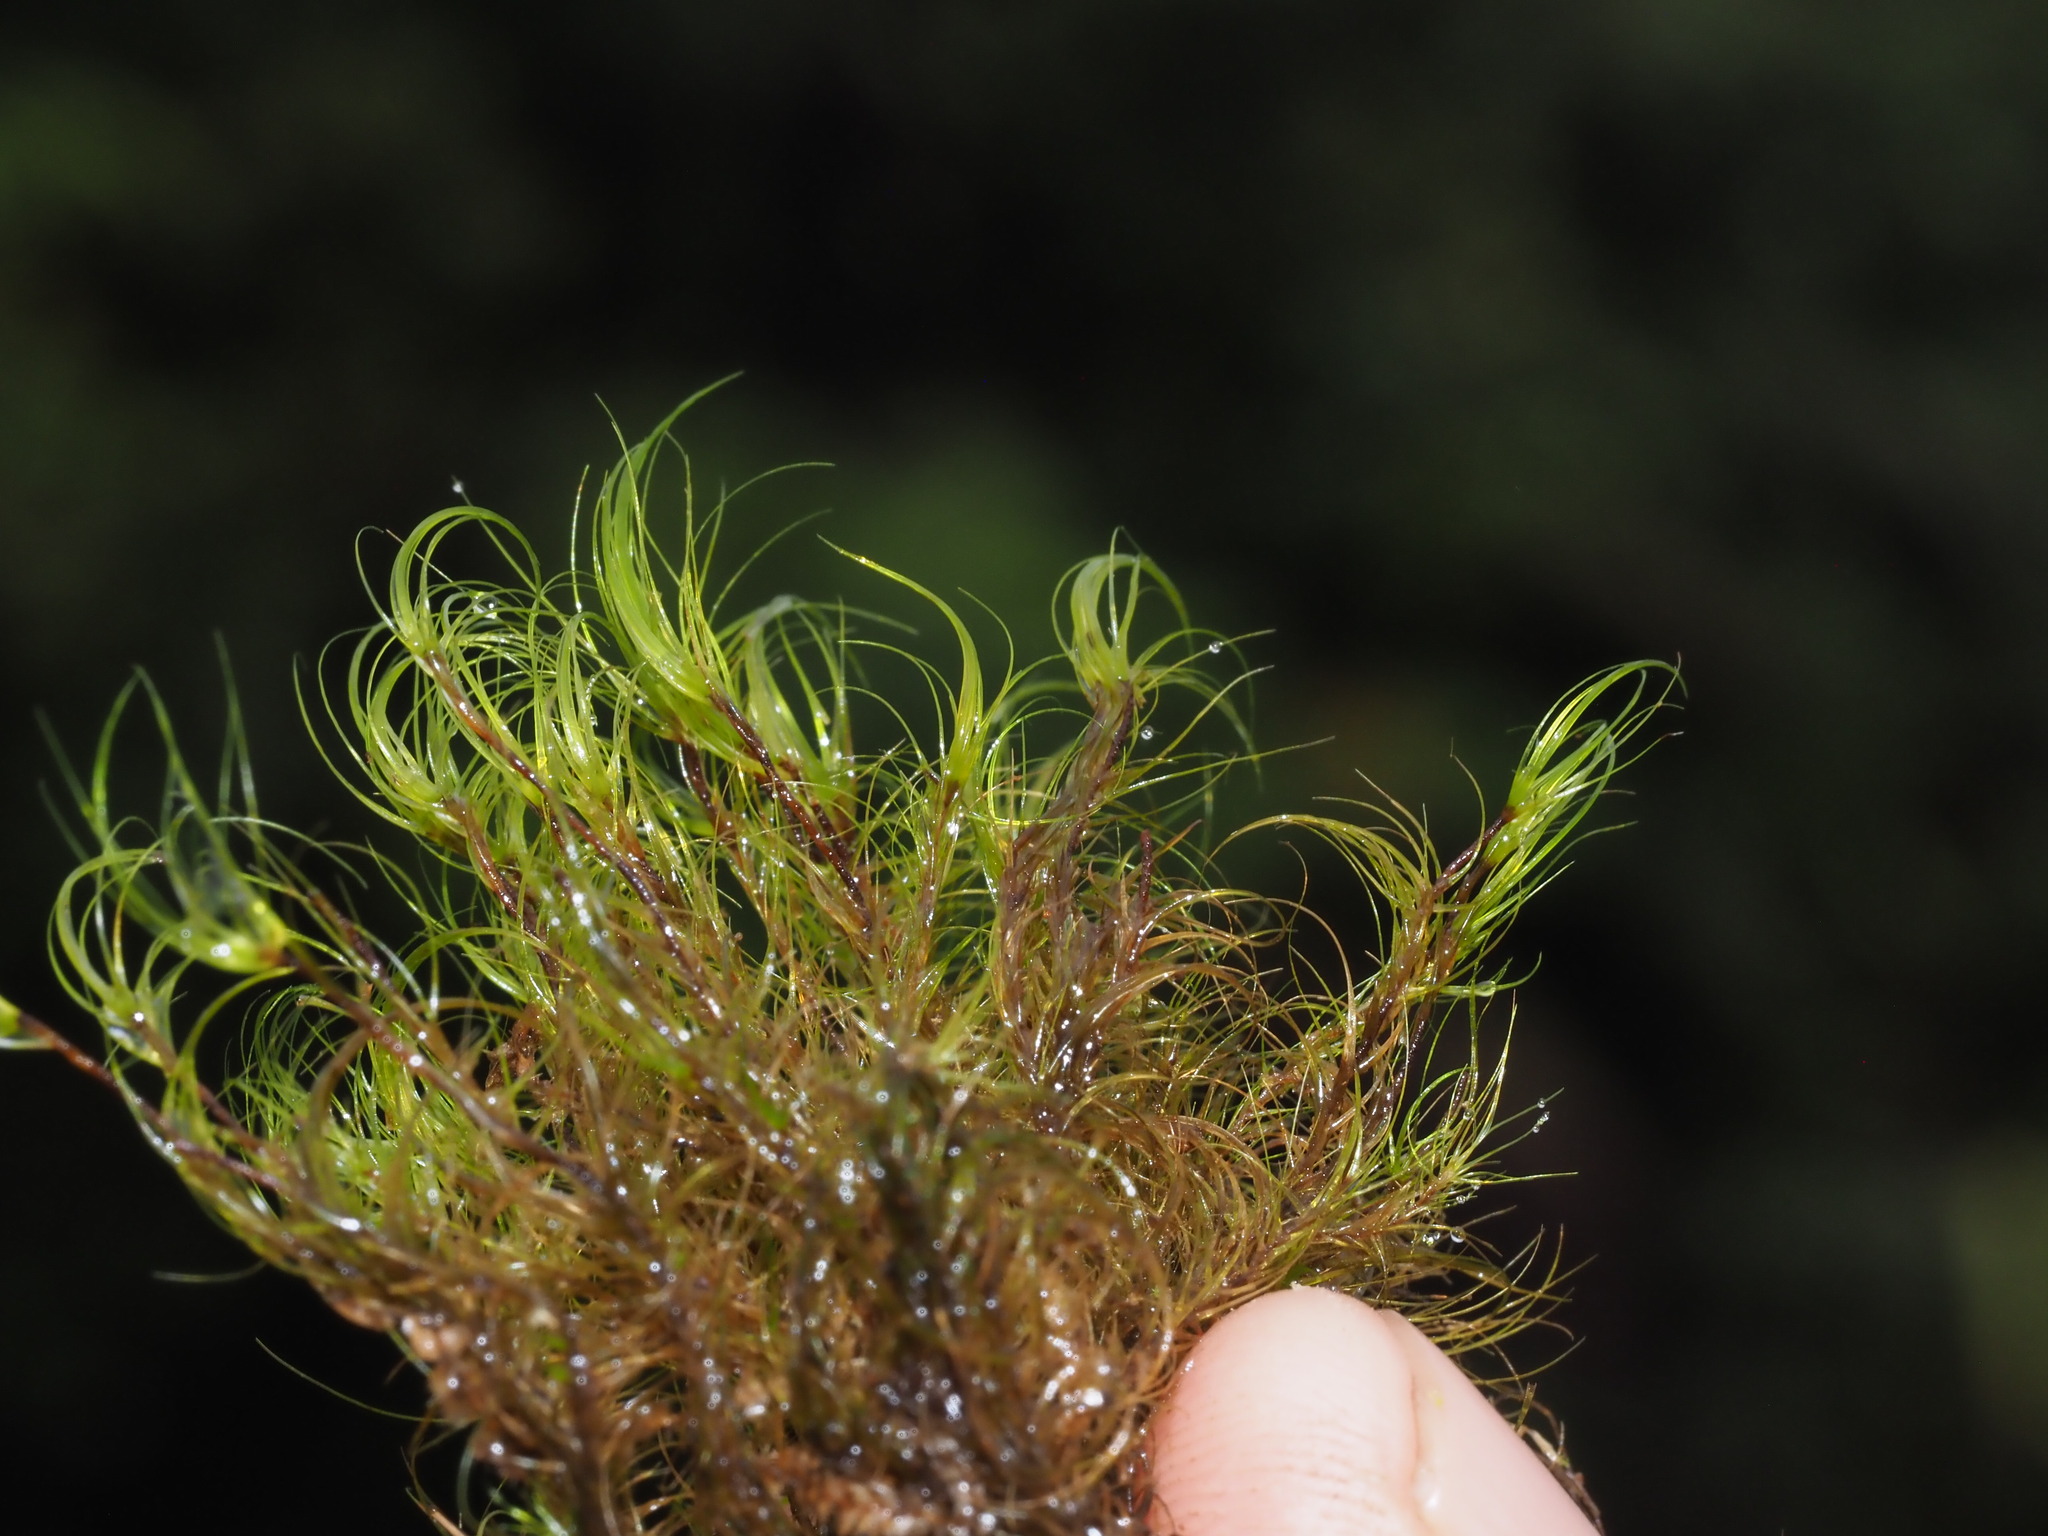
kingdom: Plantae
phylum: Bryophyta
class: Bryopsida
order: Dicranales
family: Leucobryaceae
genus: Dicranodontium
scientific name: Dicranodontium porodictyon
